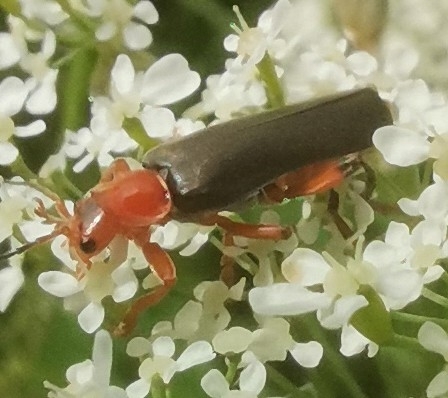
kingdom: Animalia
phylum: Arthropoda
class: Insecta
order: Coleoptera
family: Cantharidae
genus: Cantharis
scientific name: Cantharis livida
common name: Livid soldier beetle
